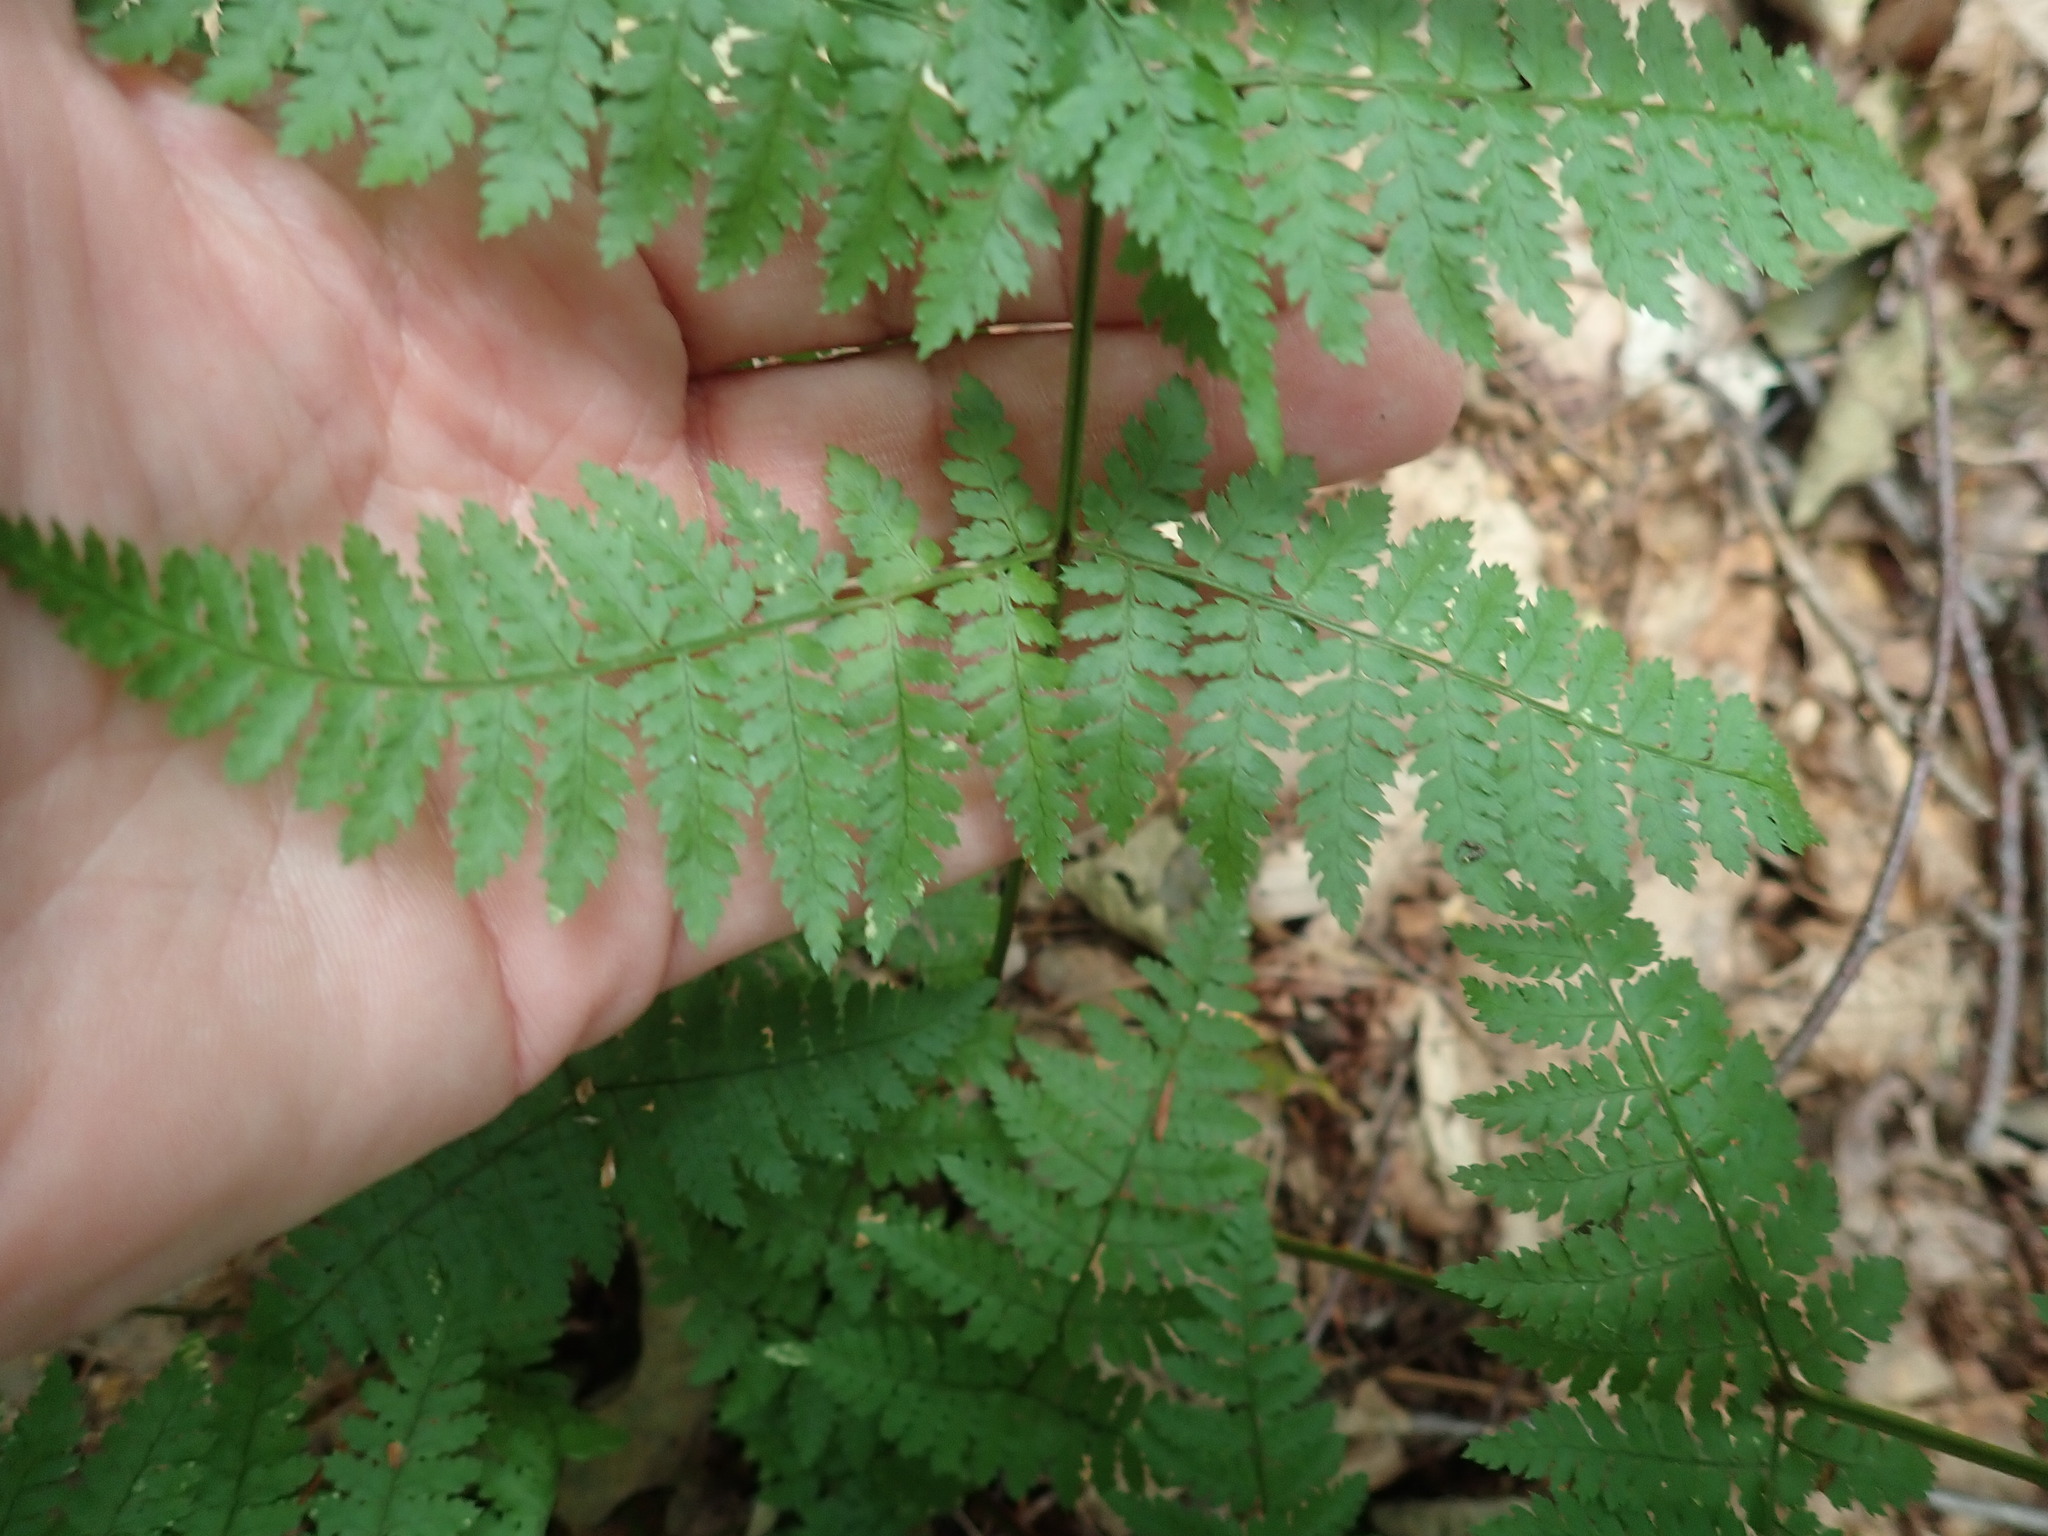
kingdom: Plantae
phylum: Tracheophyta
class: Polypodiopsida
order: Polypodiales
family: Dryopteridaceae
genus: Dryopteris
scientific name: Dryopteris intermedia
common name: Evergreen wood fern
